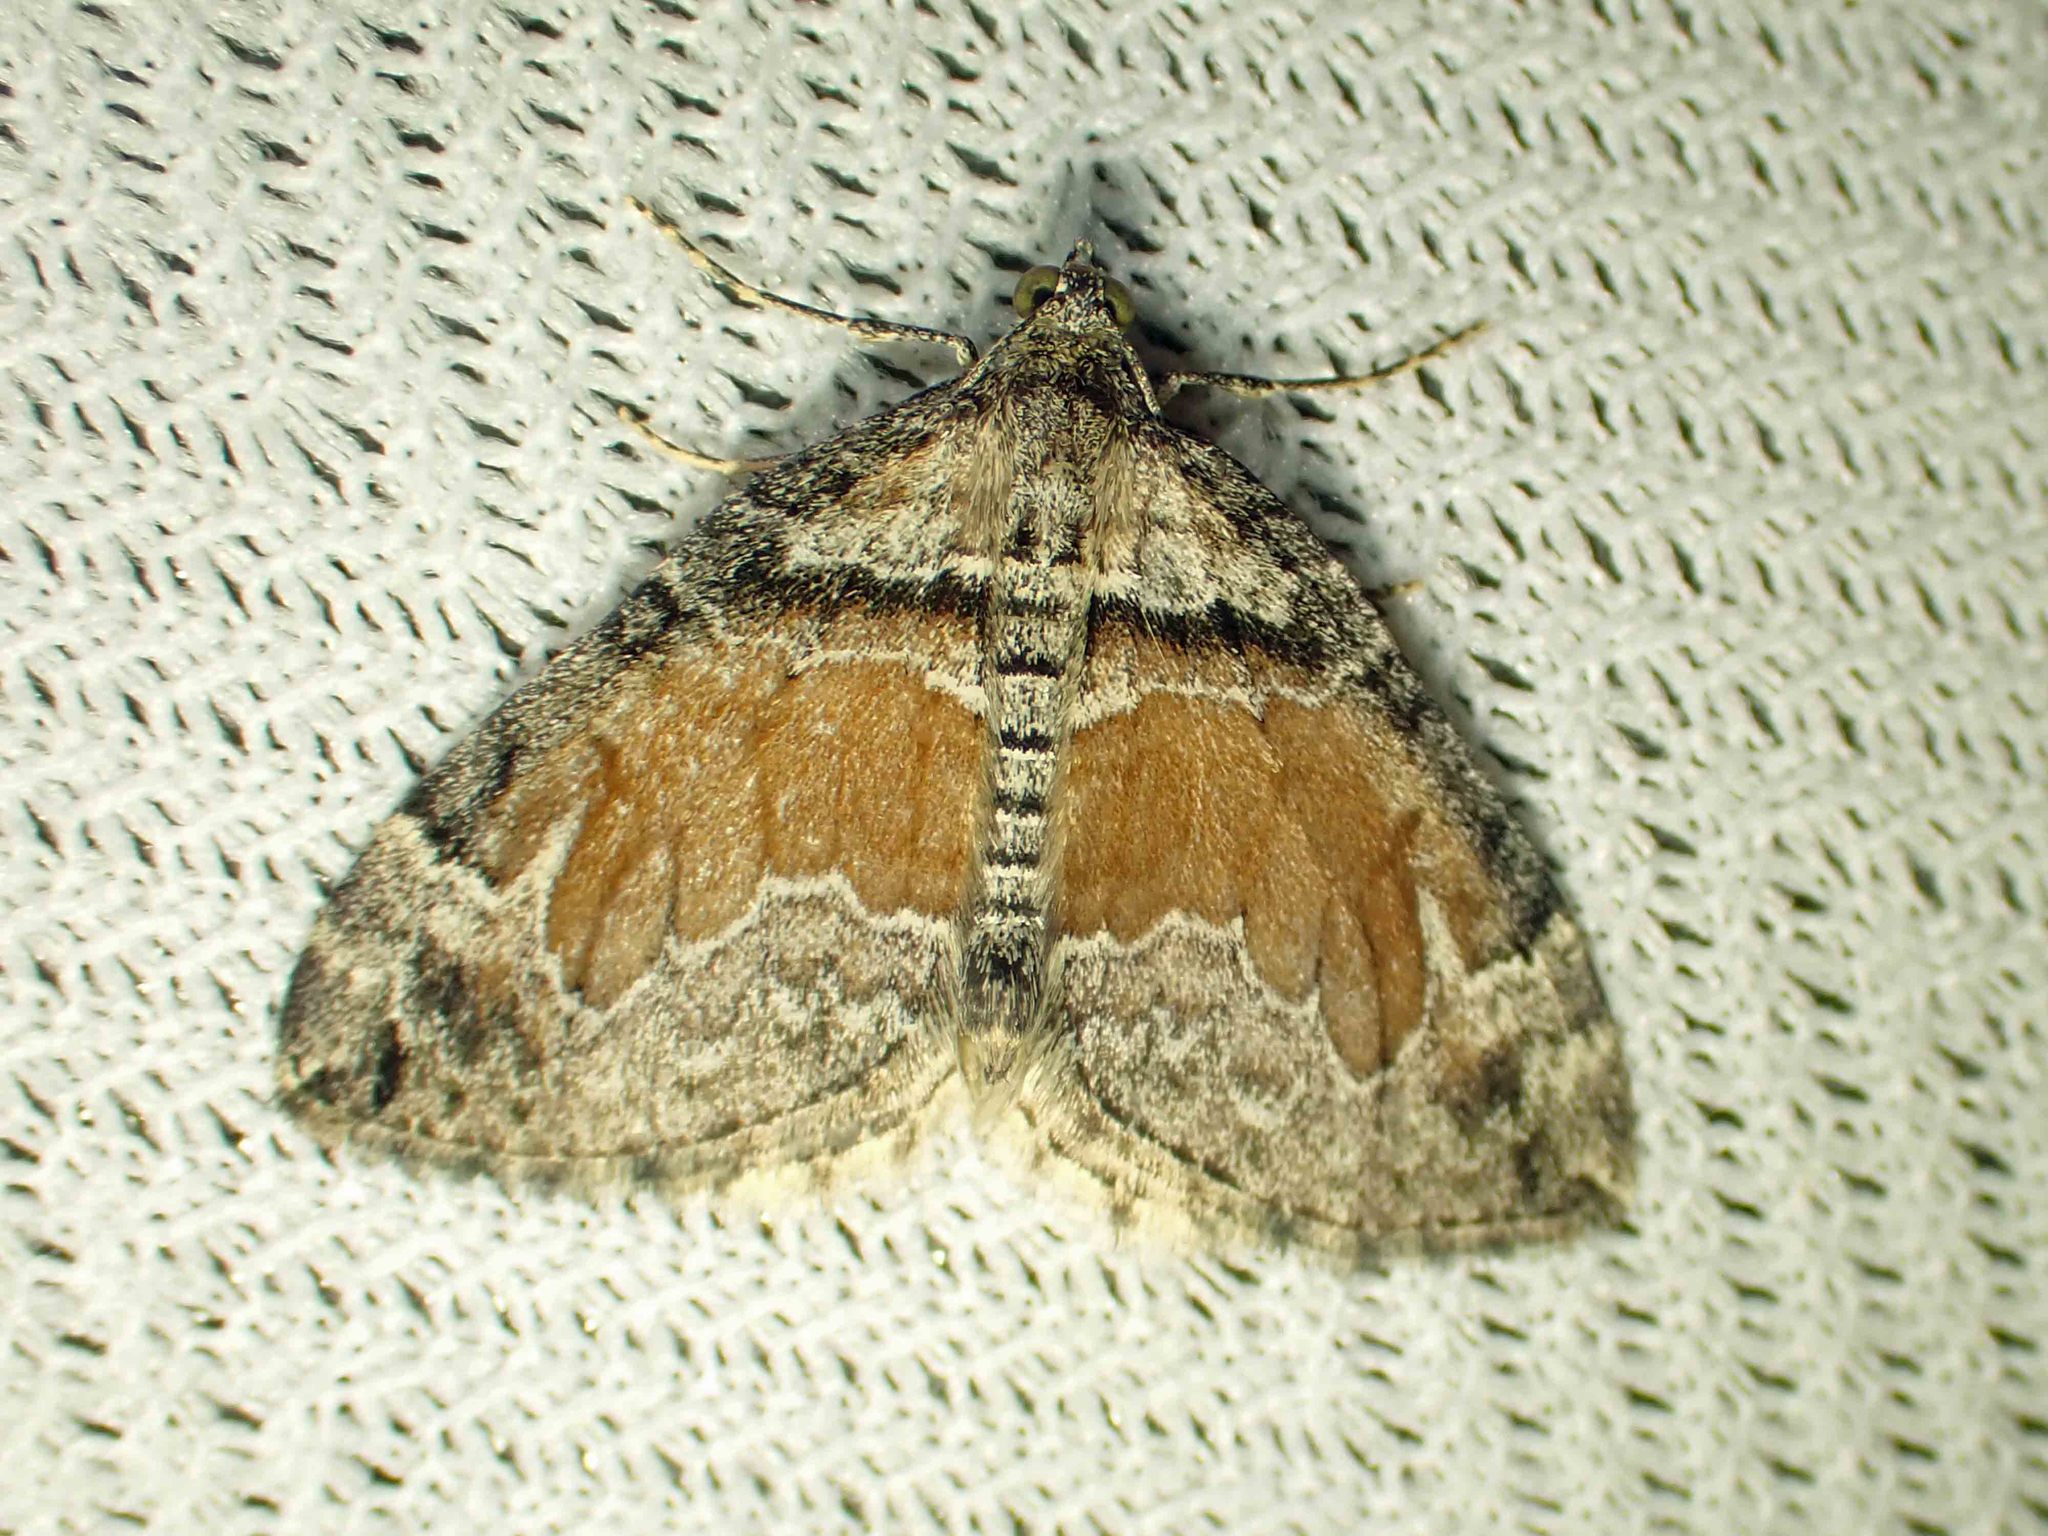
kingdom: Animalia
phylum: Arthropoda
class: Insecta
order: Lepidoptera
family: Geometridae
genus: Dysstroma
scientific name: Dysstroma hersiliata
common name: Orange-barred carpet
